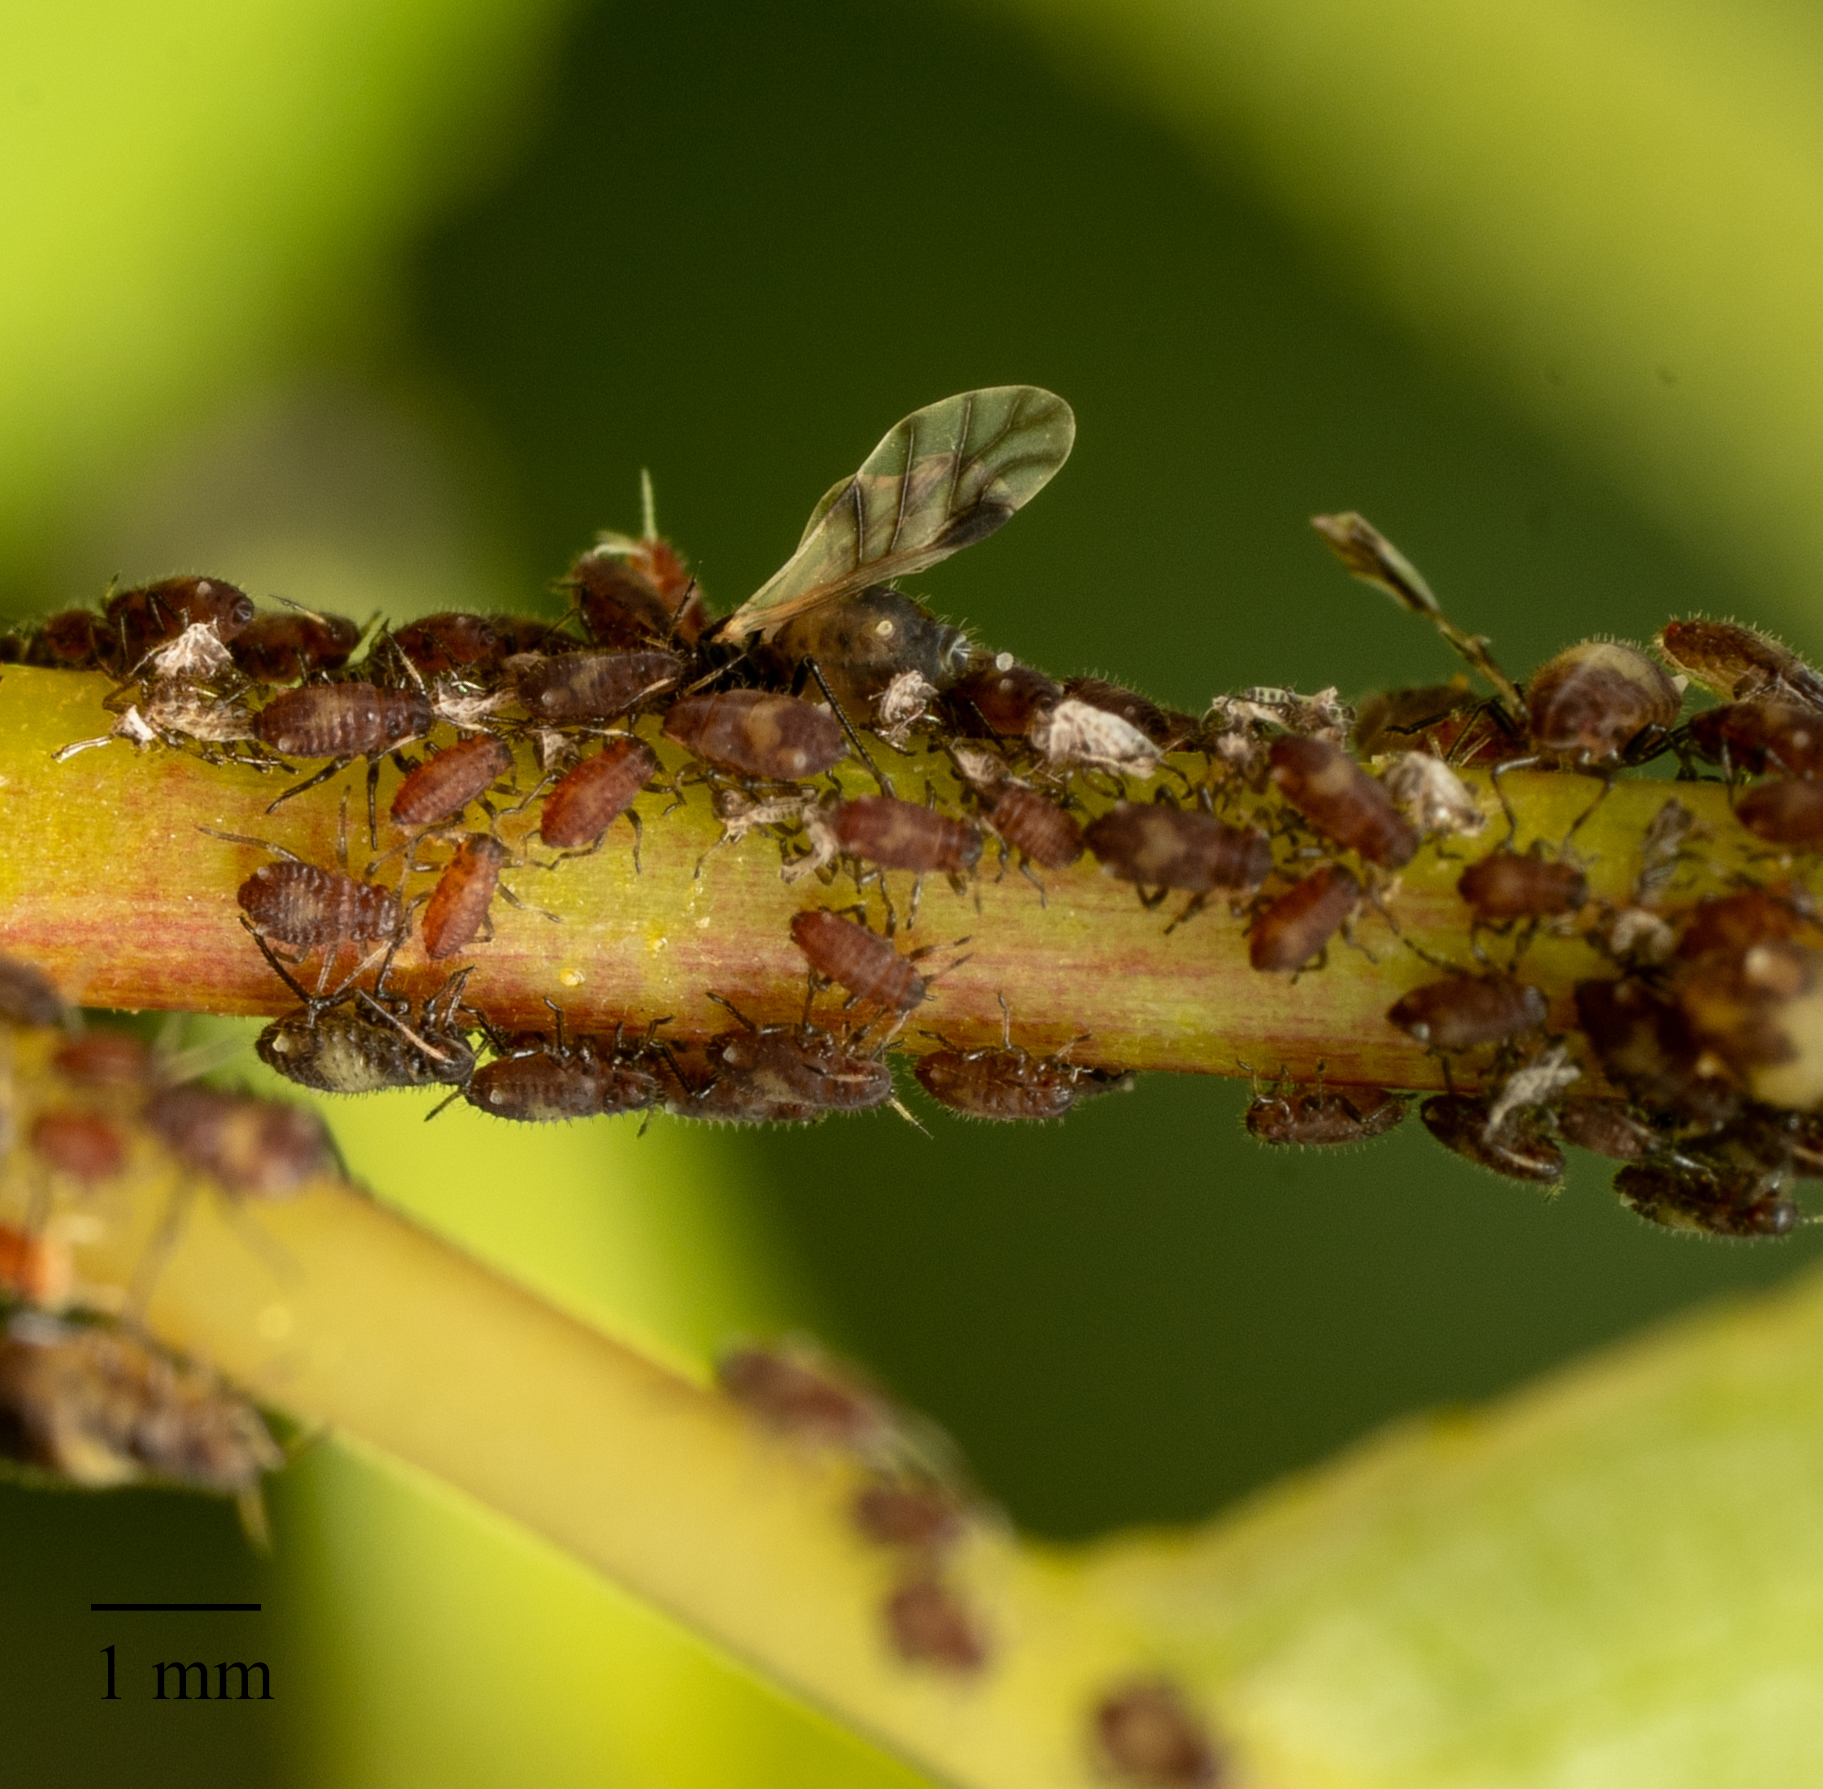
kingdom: Animalia
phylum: Arthropoda
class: Insecta
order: Hemiptera
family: Aphididae
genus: Chaitophorus
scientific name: Chaitophorus populicola
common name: Smokywinged poplar aphid
